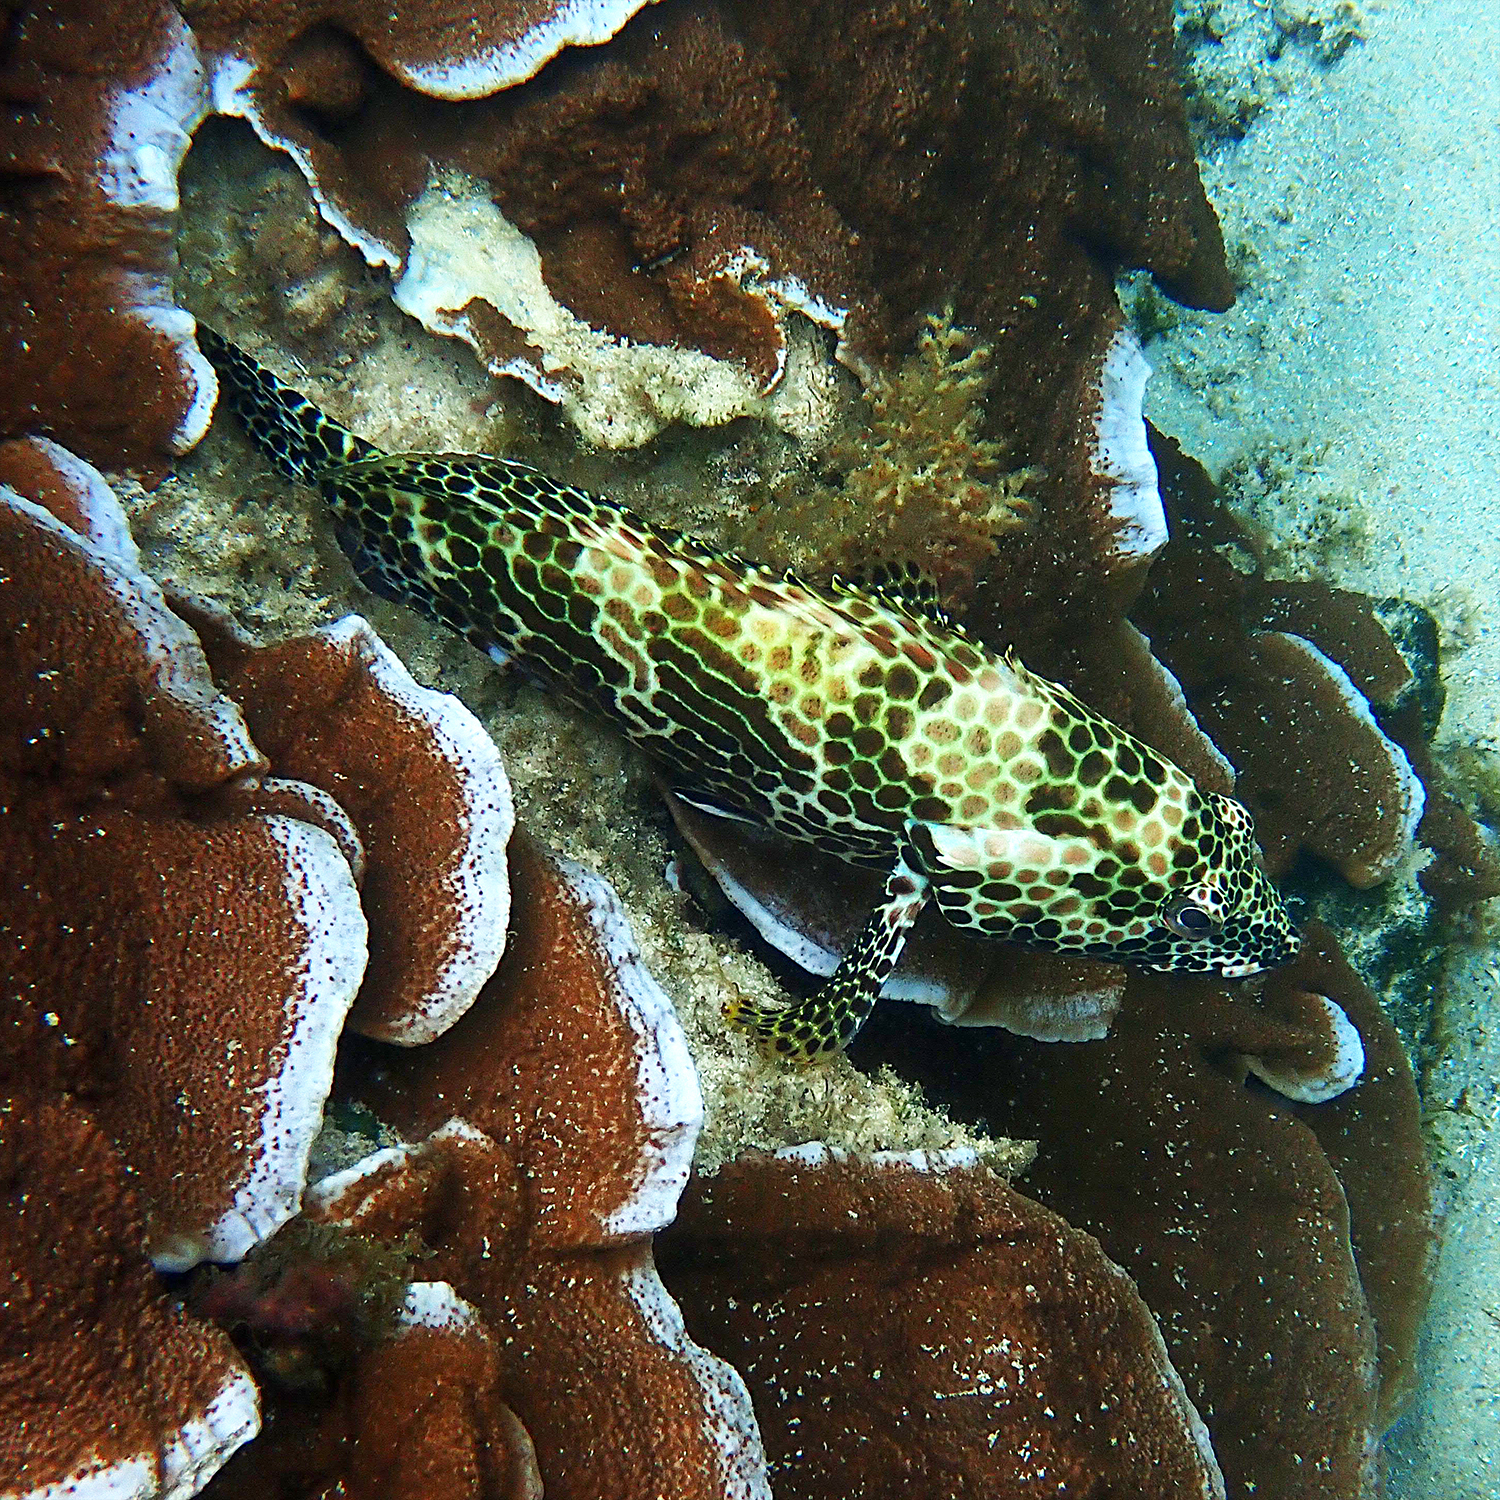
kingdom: Animalia
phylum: Chordata
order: Perciformes
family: Serranidae
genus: Epinephelus
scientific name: Epinephelus merra
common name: Honeycomb grouper
